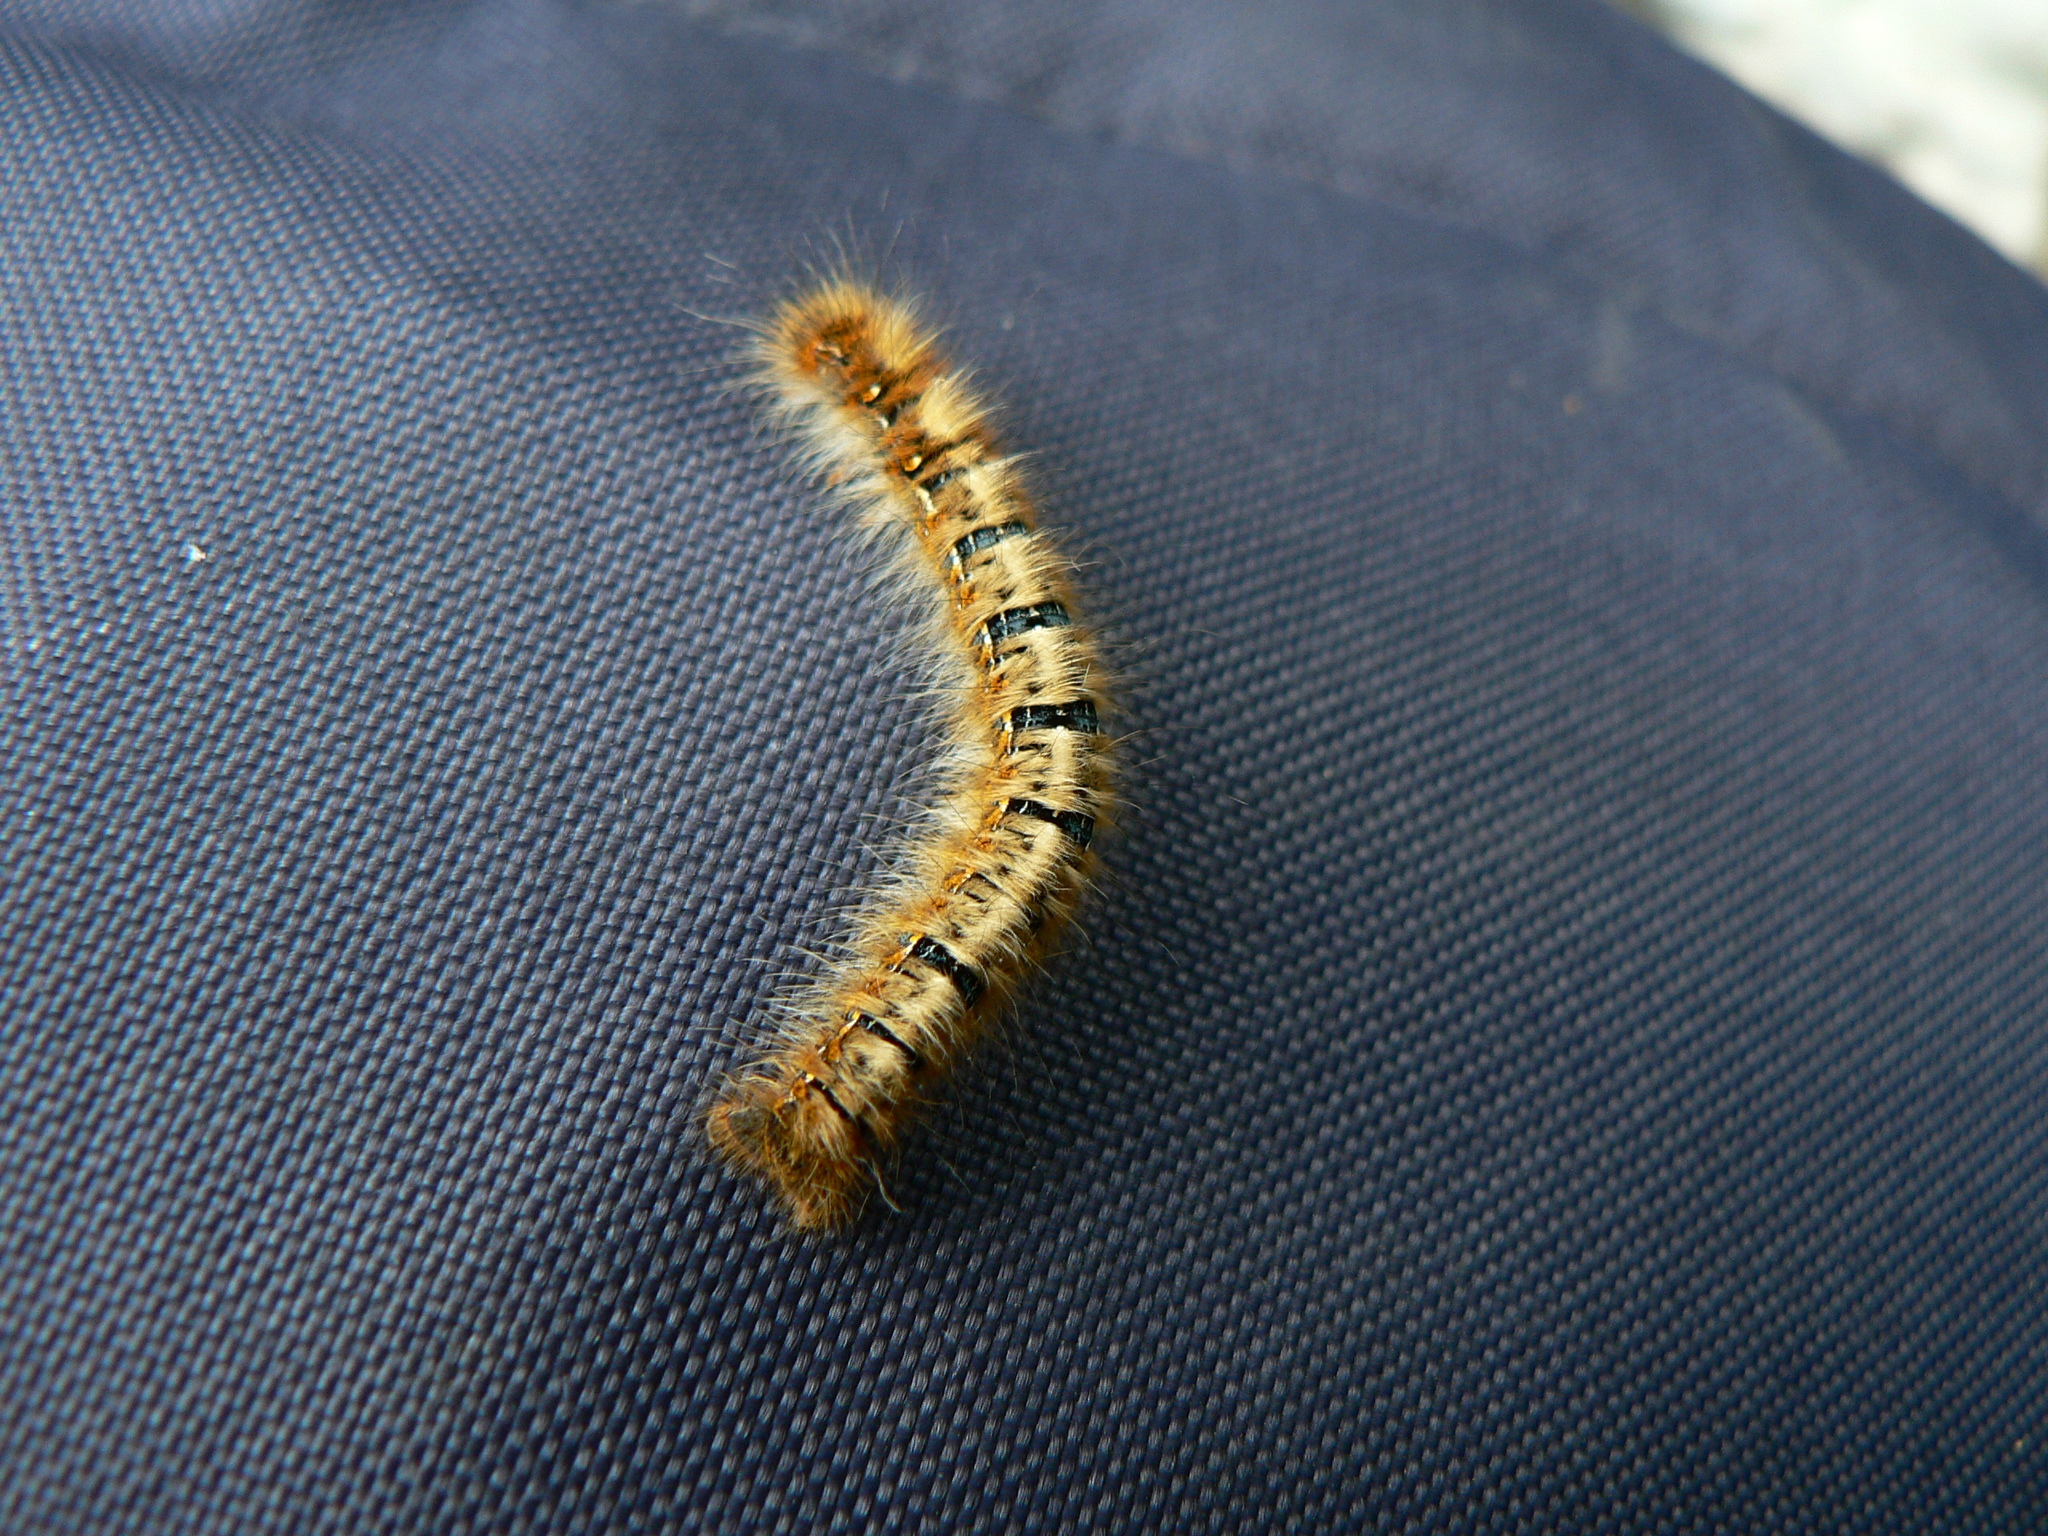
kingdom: Animalia
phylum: Arthropoda
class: Insecta
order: Lepidoptera
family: Lasiocampidae
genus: Lasiocampa
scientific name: Lasiocampa quercus
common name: Oak eggar
